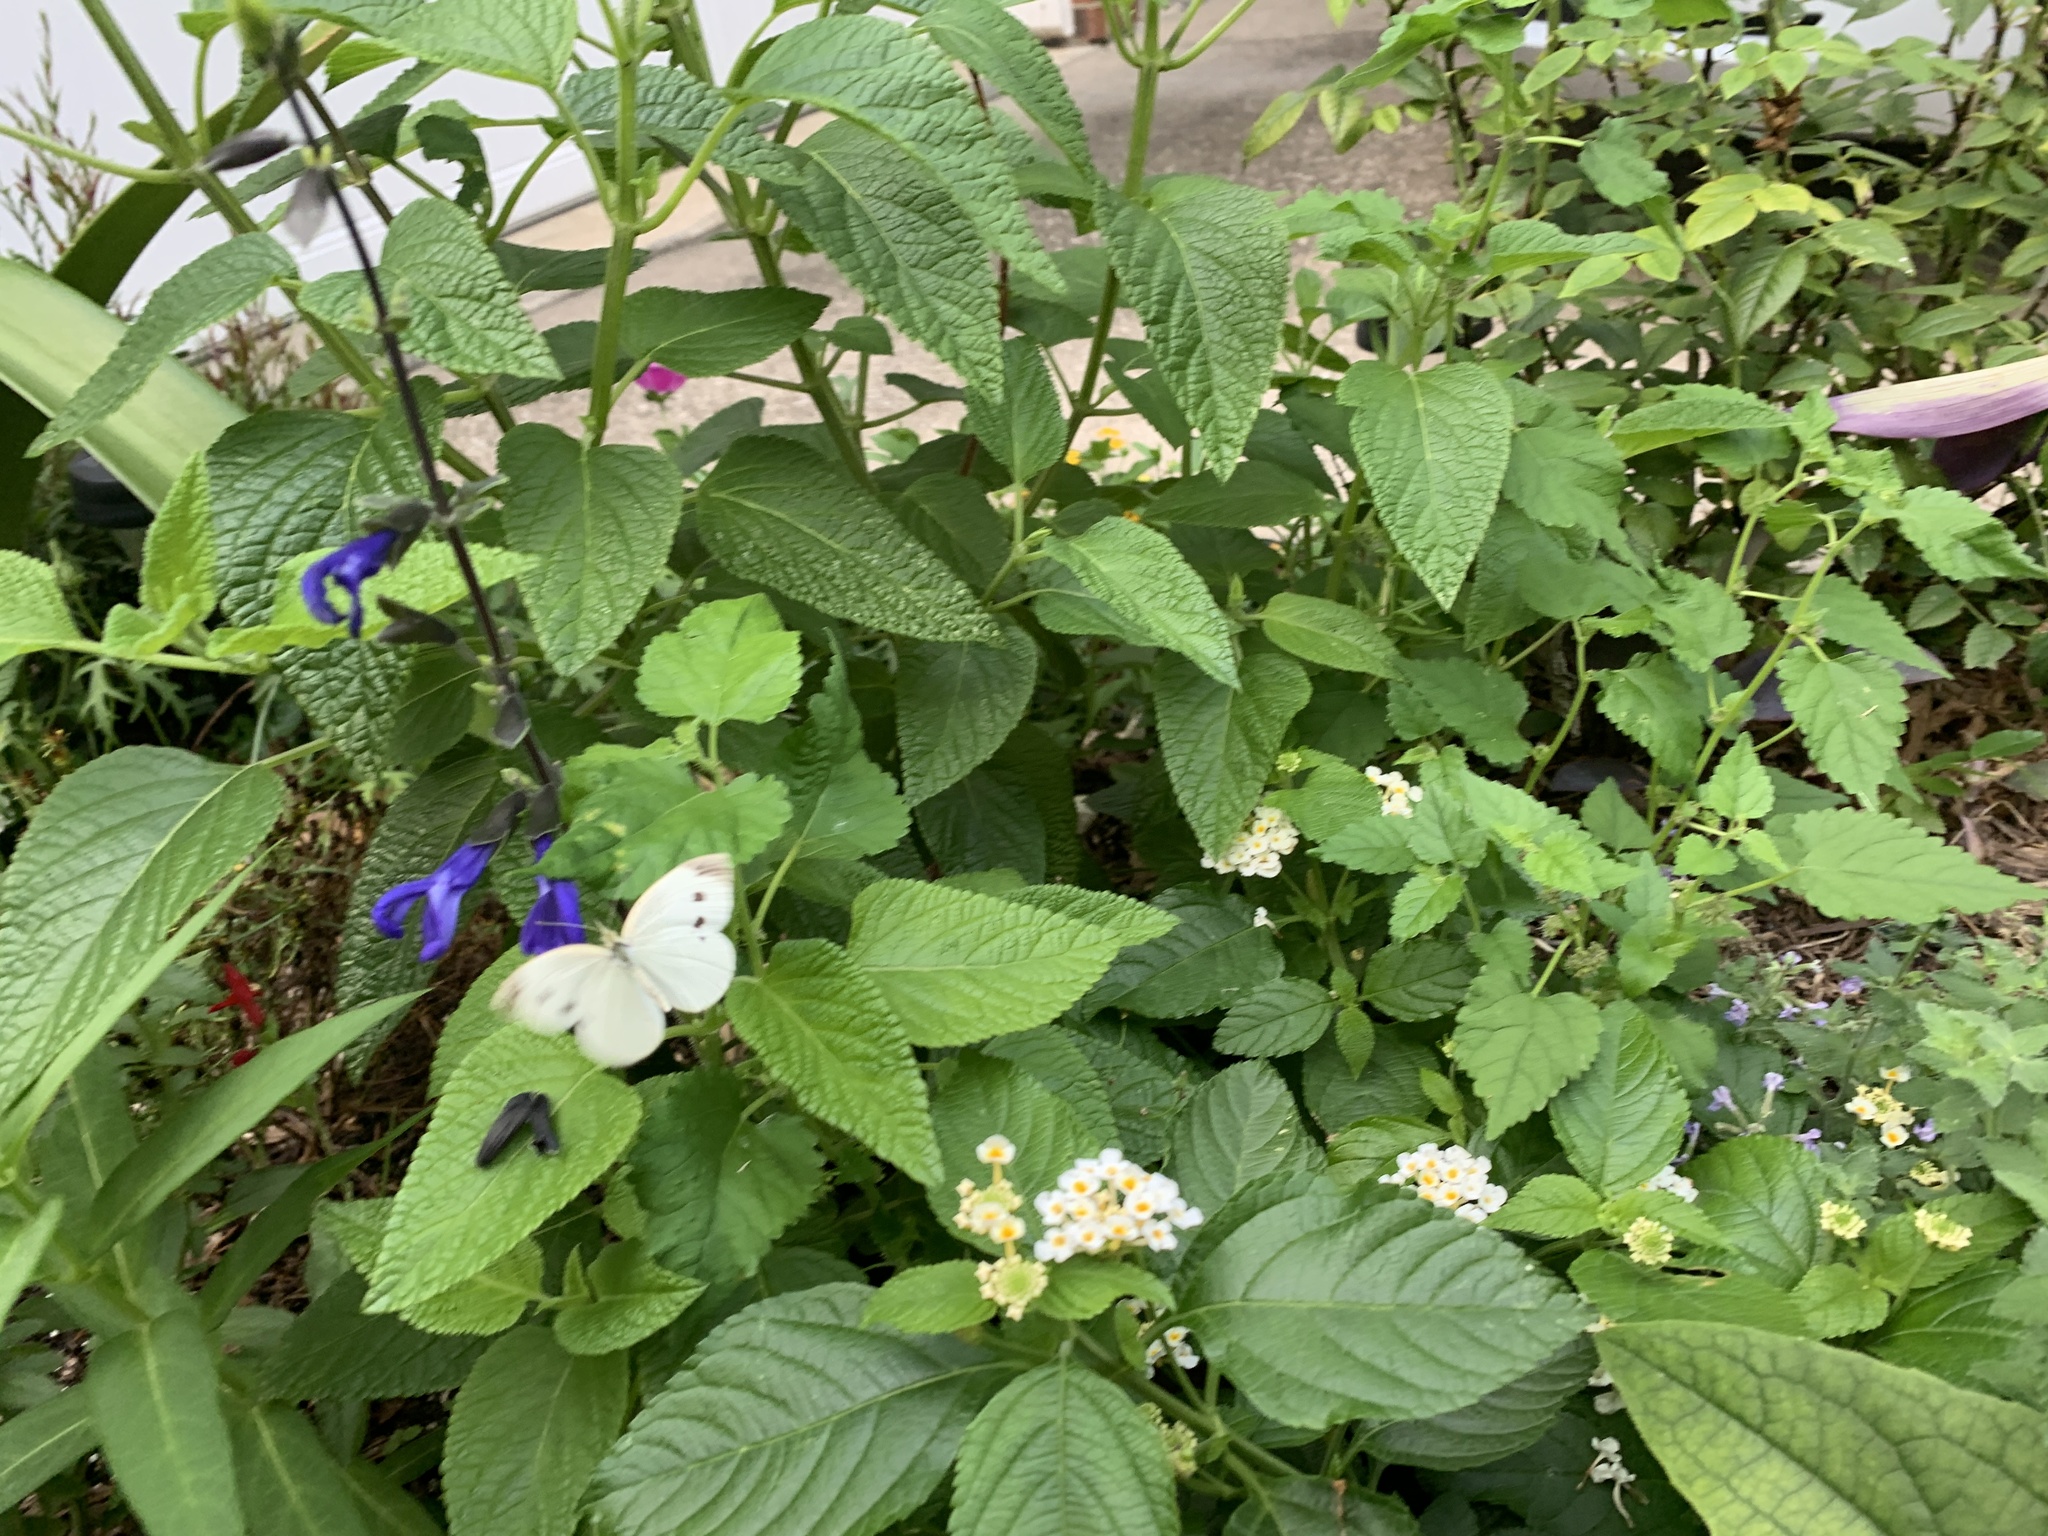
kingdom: Animalia
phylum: Arthropoda
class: Insecta
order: Lepidoptera
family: Pieridae
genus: Pieris
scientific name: Pieris rapae
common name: Small white
